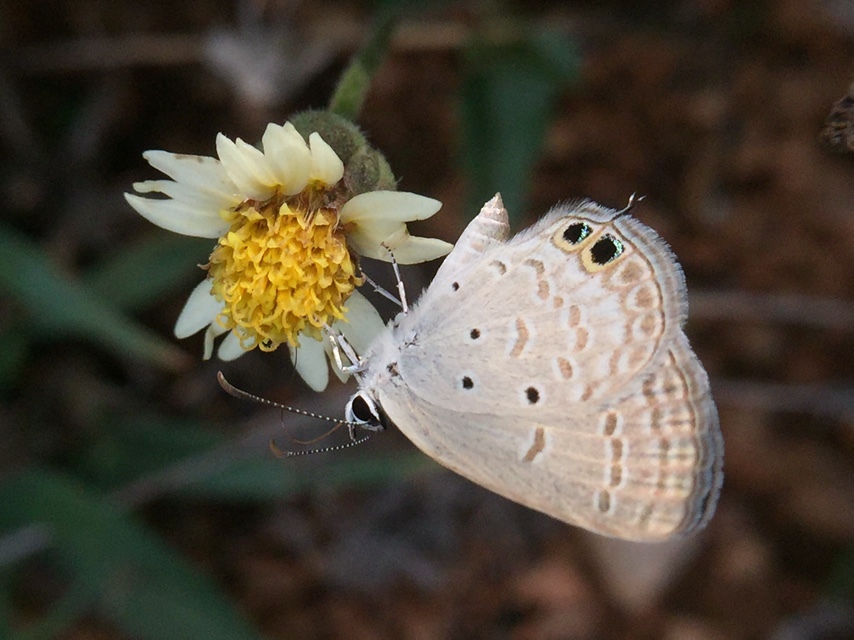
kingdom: Animalia
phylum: Arthropoda
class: Insecta
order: Lepidoptera
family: Lycaenidae
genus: Euchrysops
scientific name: Euchrysops cnejus
